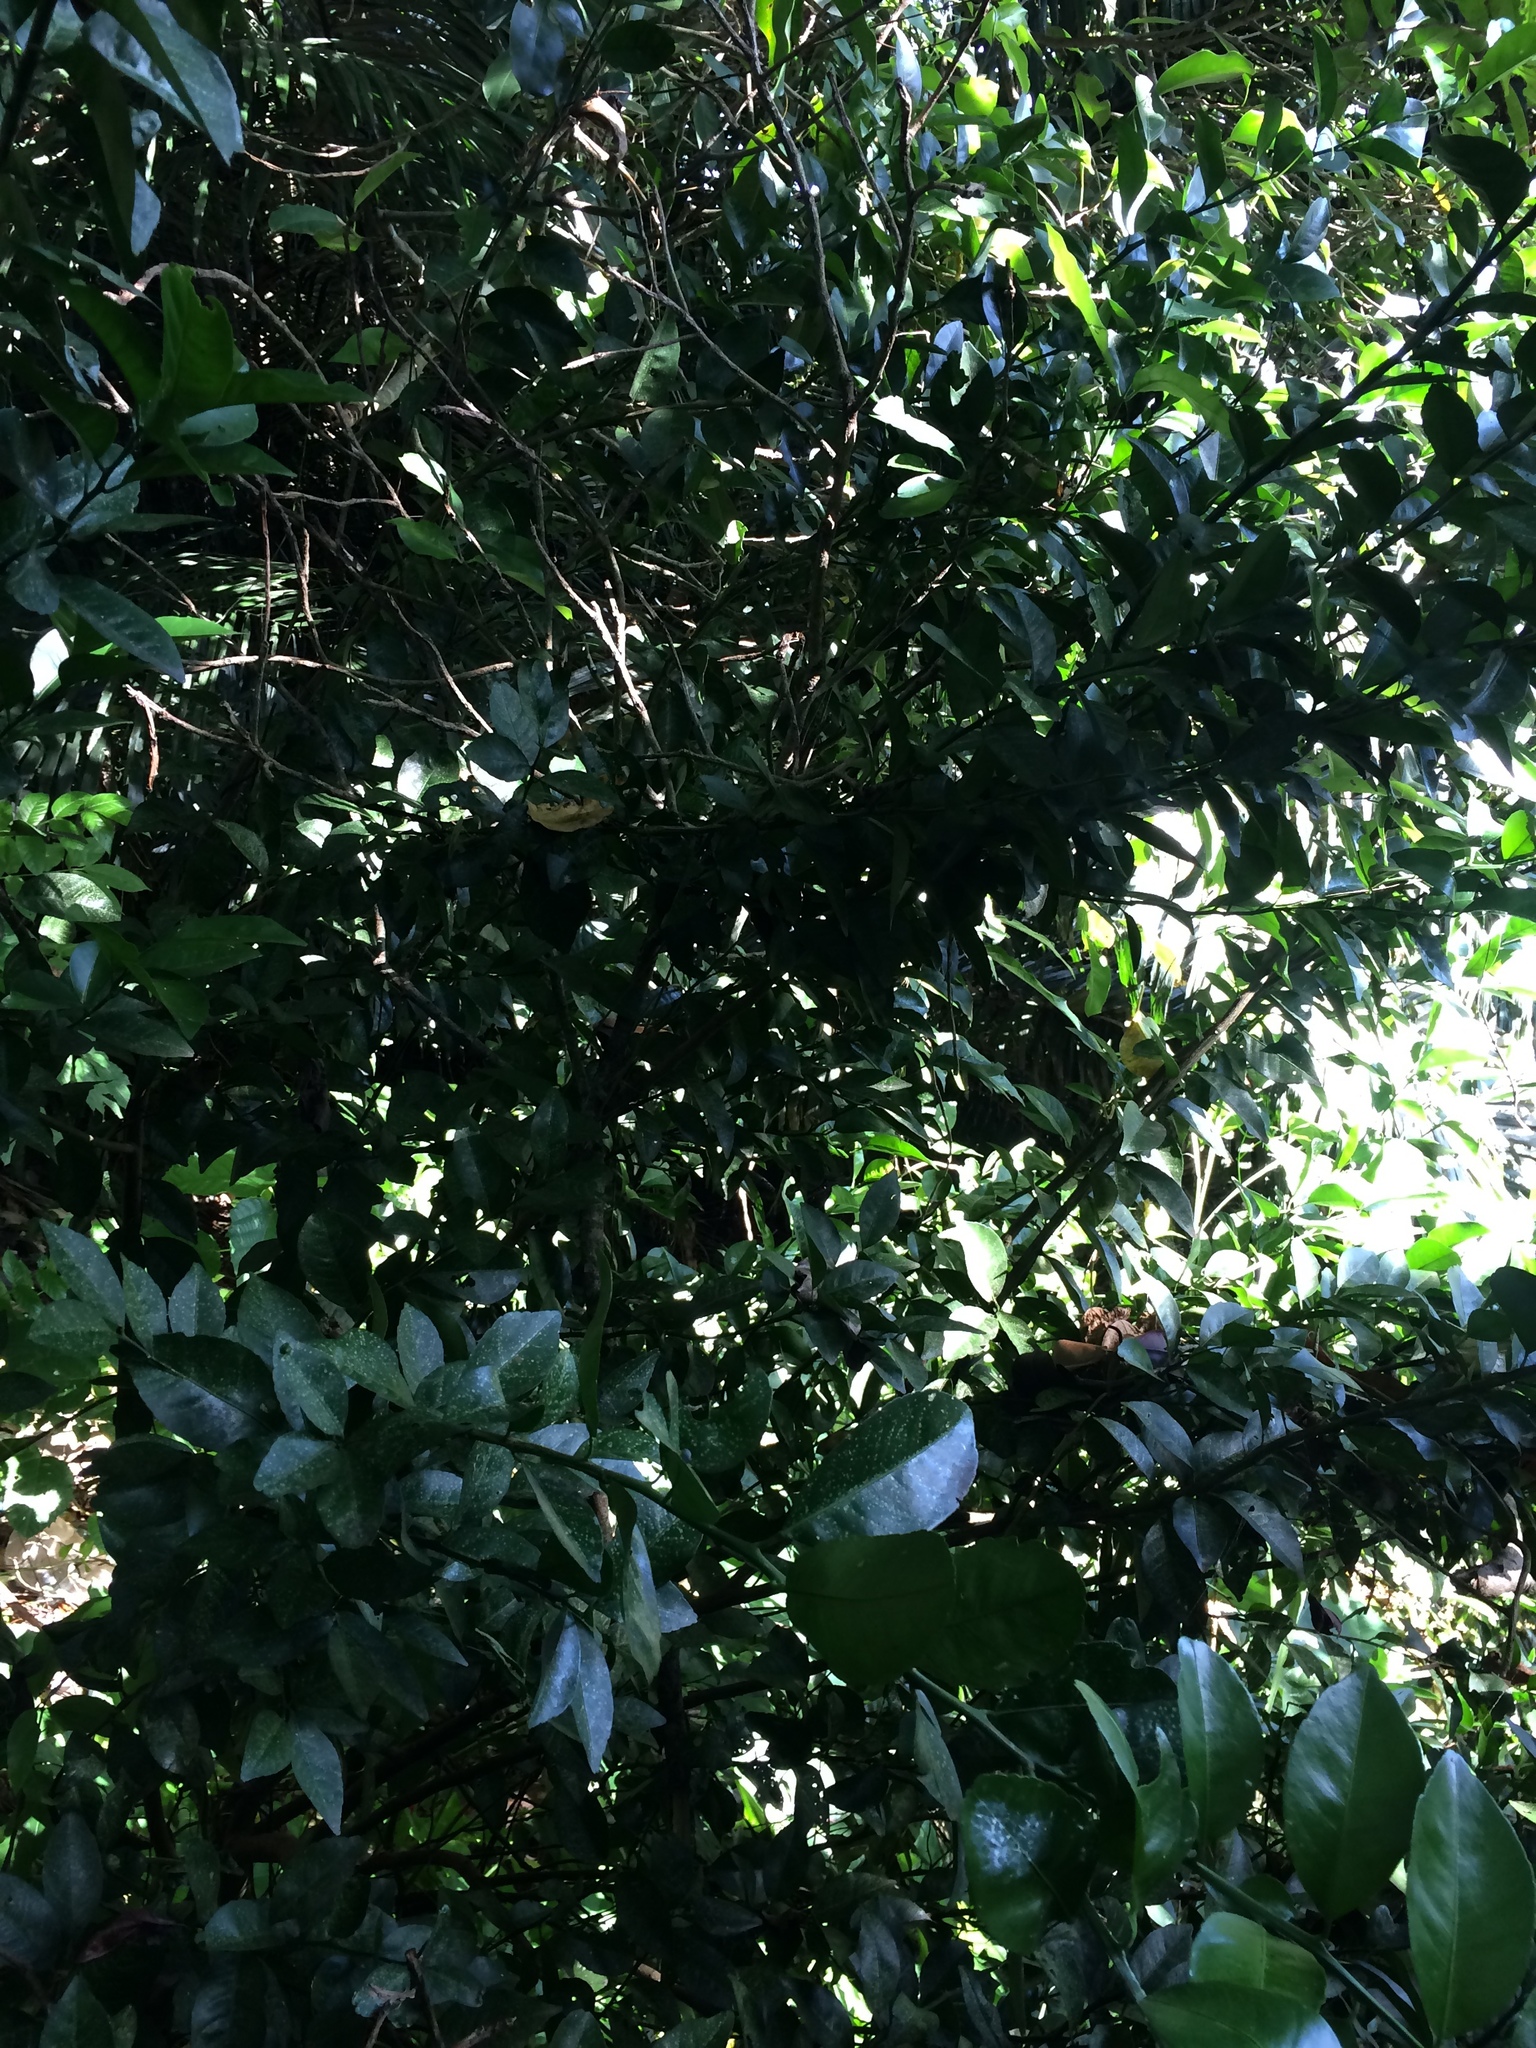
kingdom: Plantae
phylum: Tracheophyta
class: Magnoliopsida
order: Sapindales
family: Rutaceae
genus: Citrus
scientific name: Citrus microcarpa
